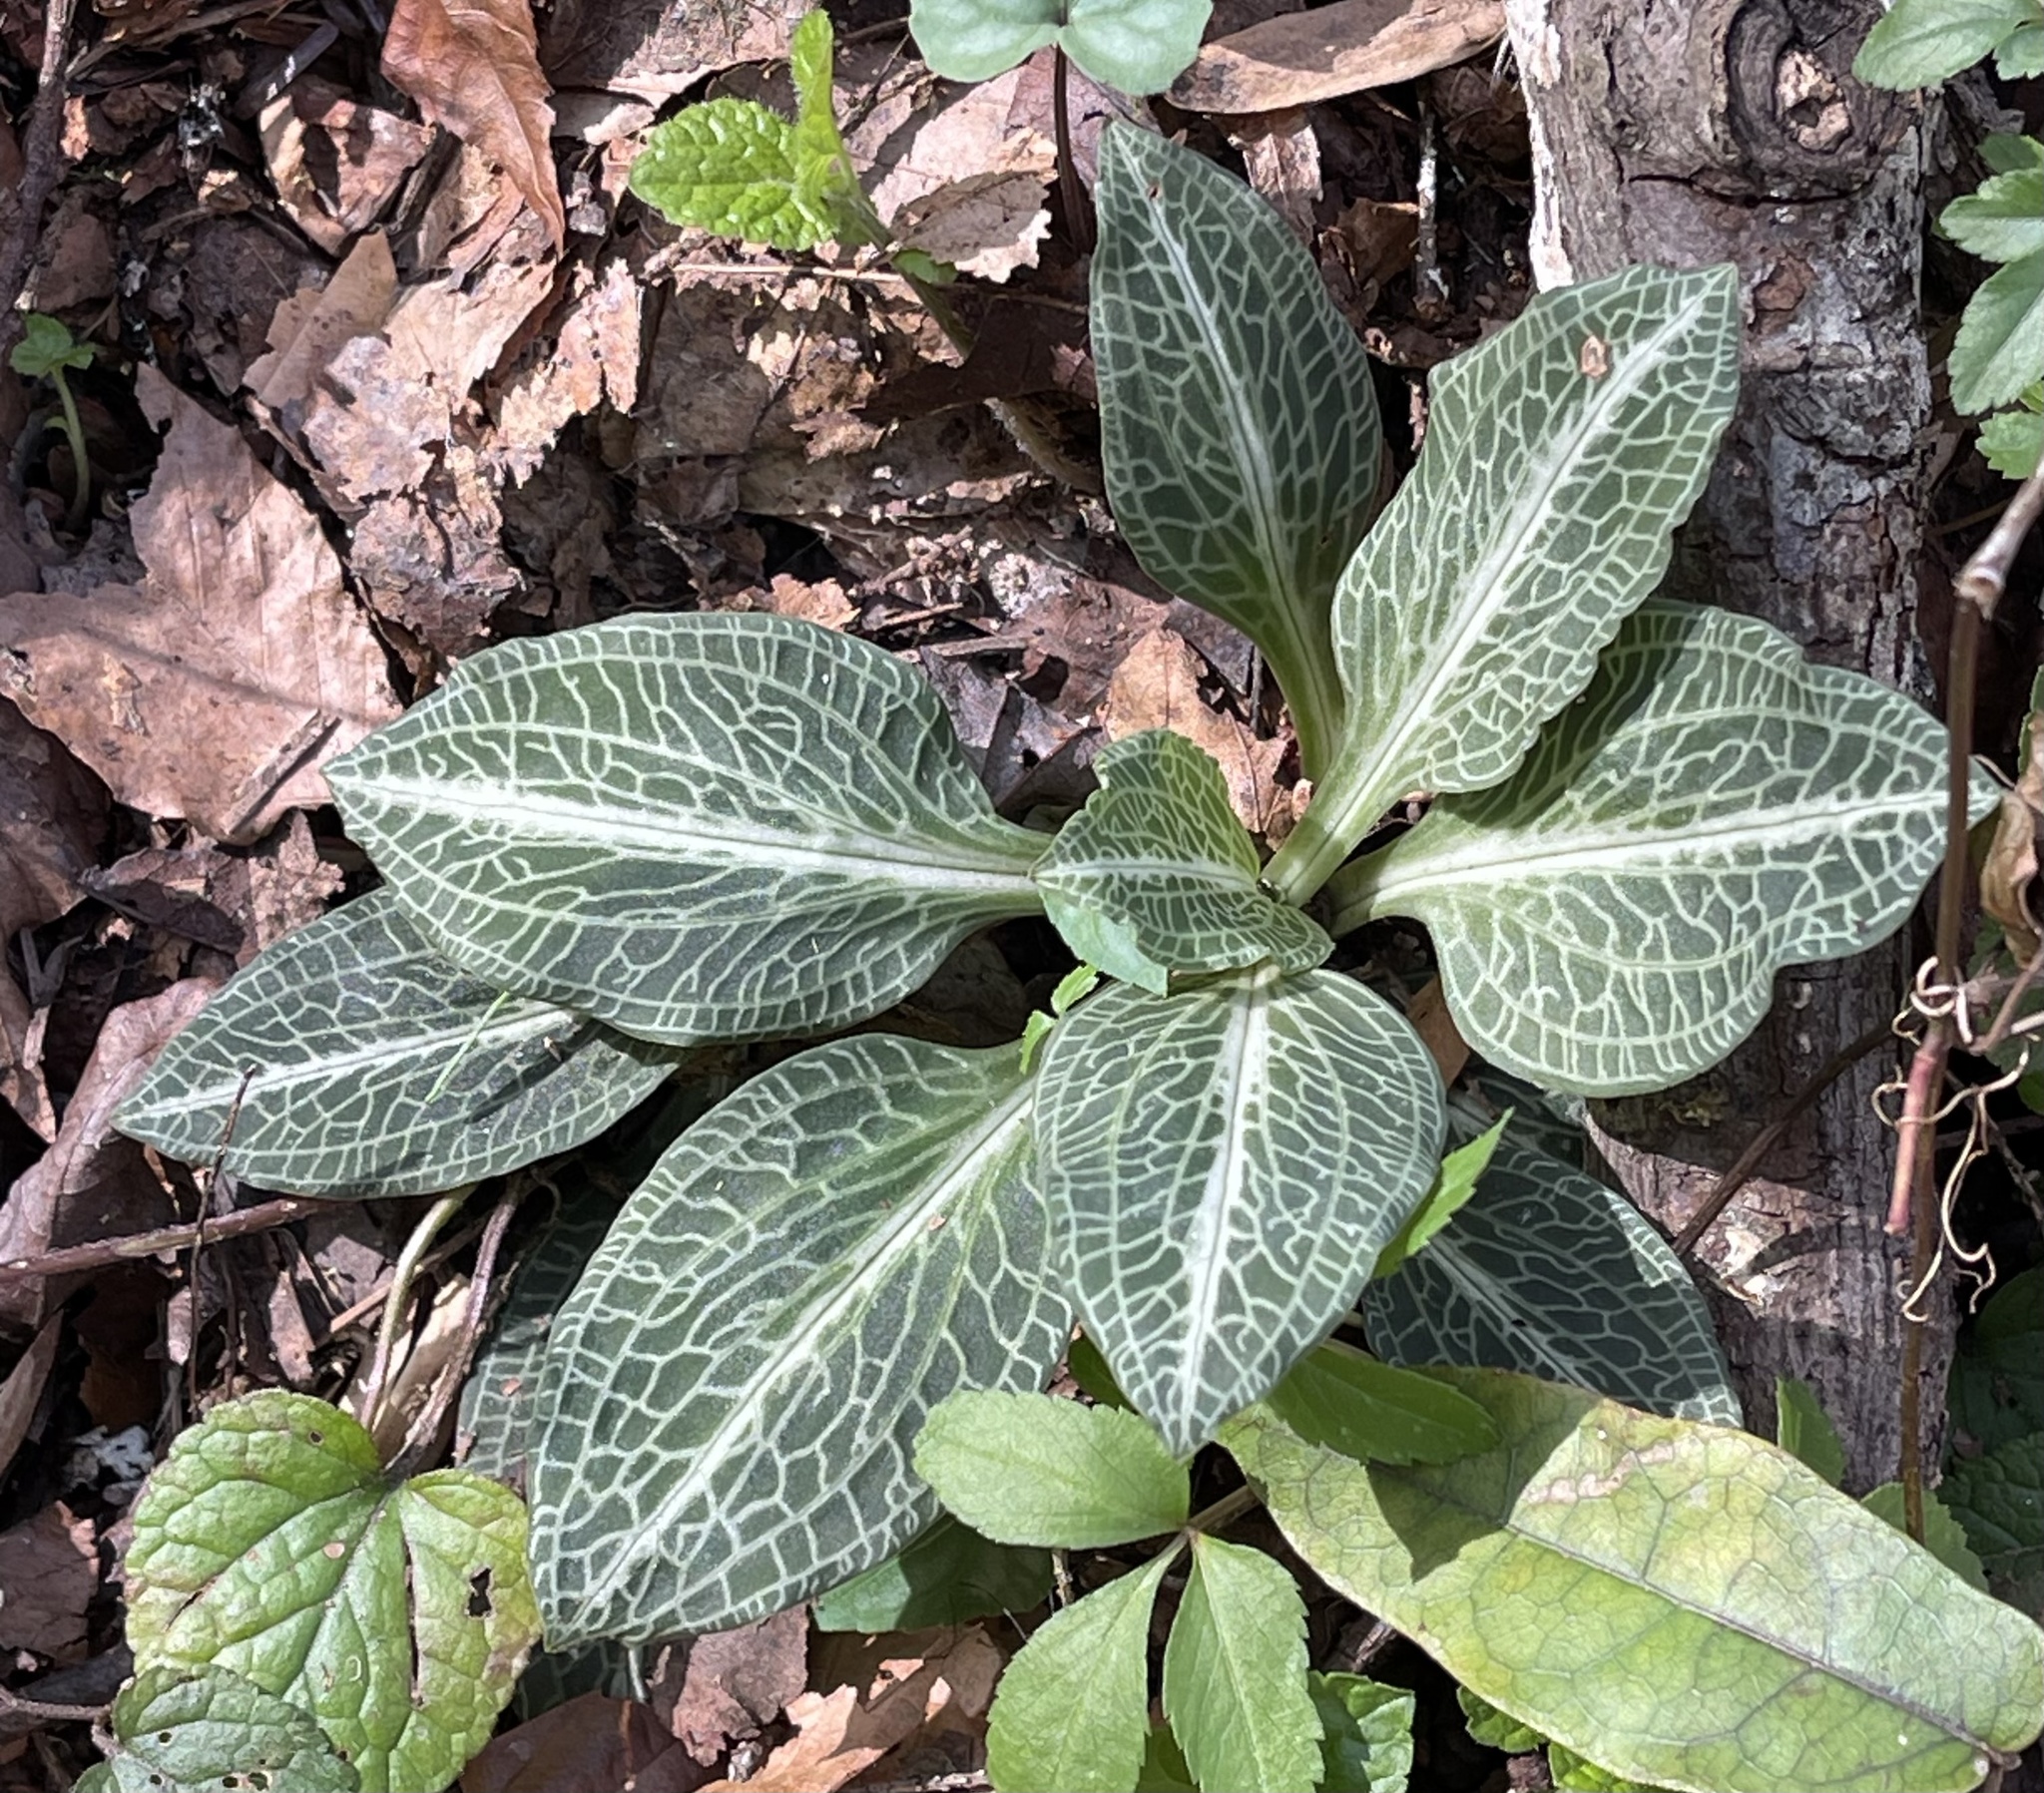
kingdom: Plantae
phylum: Tracheophyta
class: Liliopsida
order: Asparagales
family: Orchidaceae
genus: Goodyera
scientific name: Goodyera pubescens
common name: Downy rattlesnake-plantain
